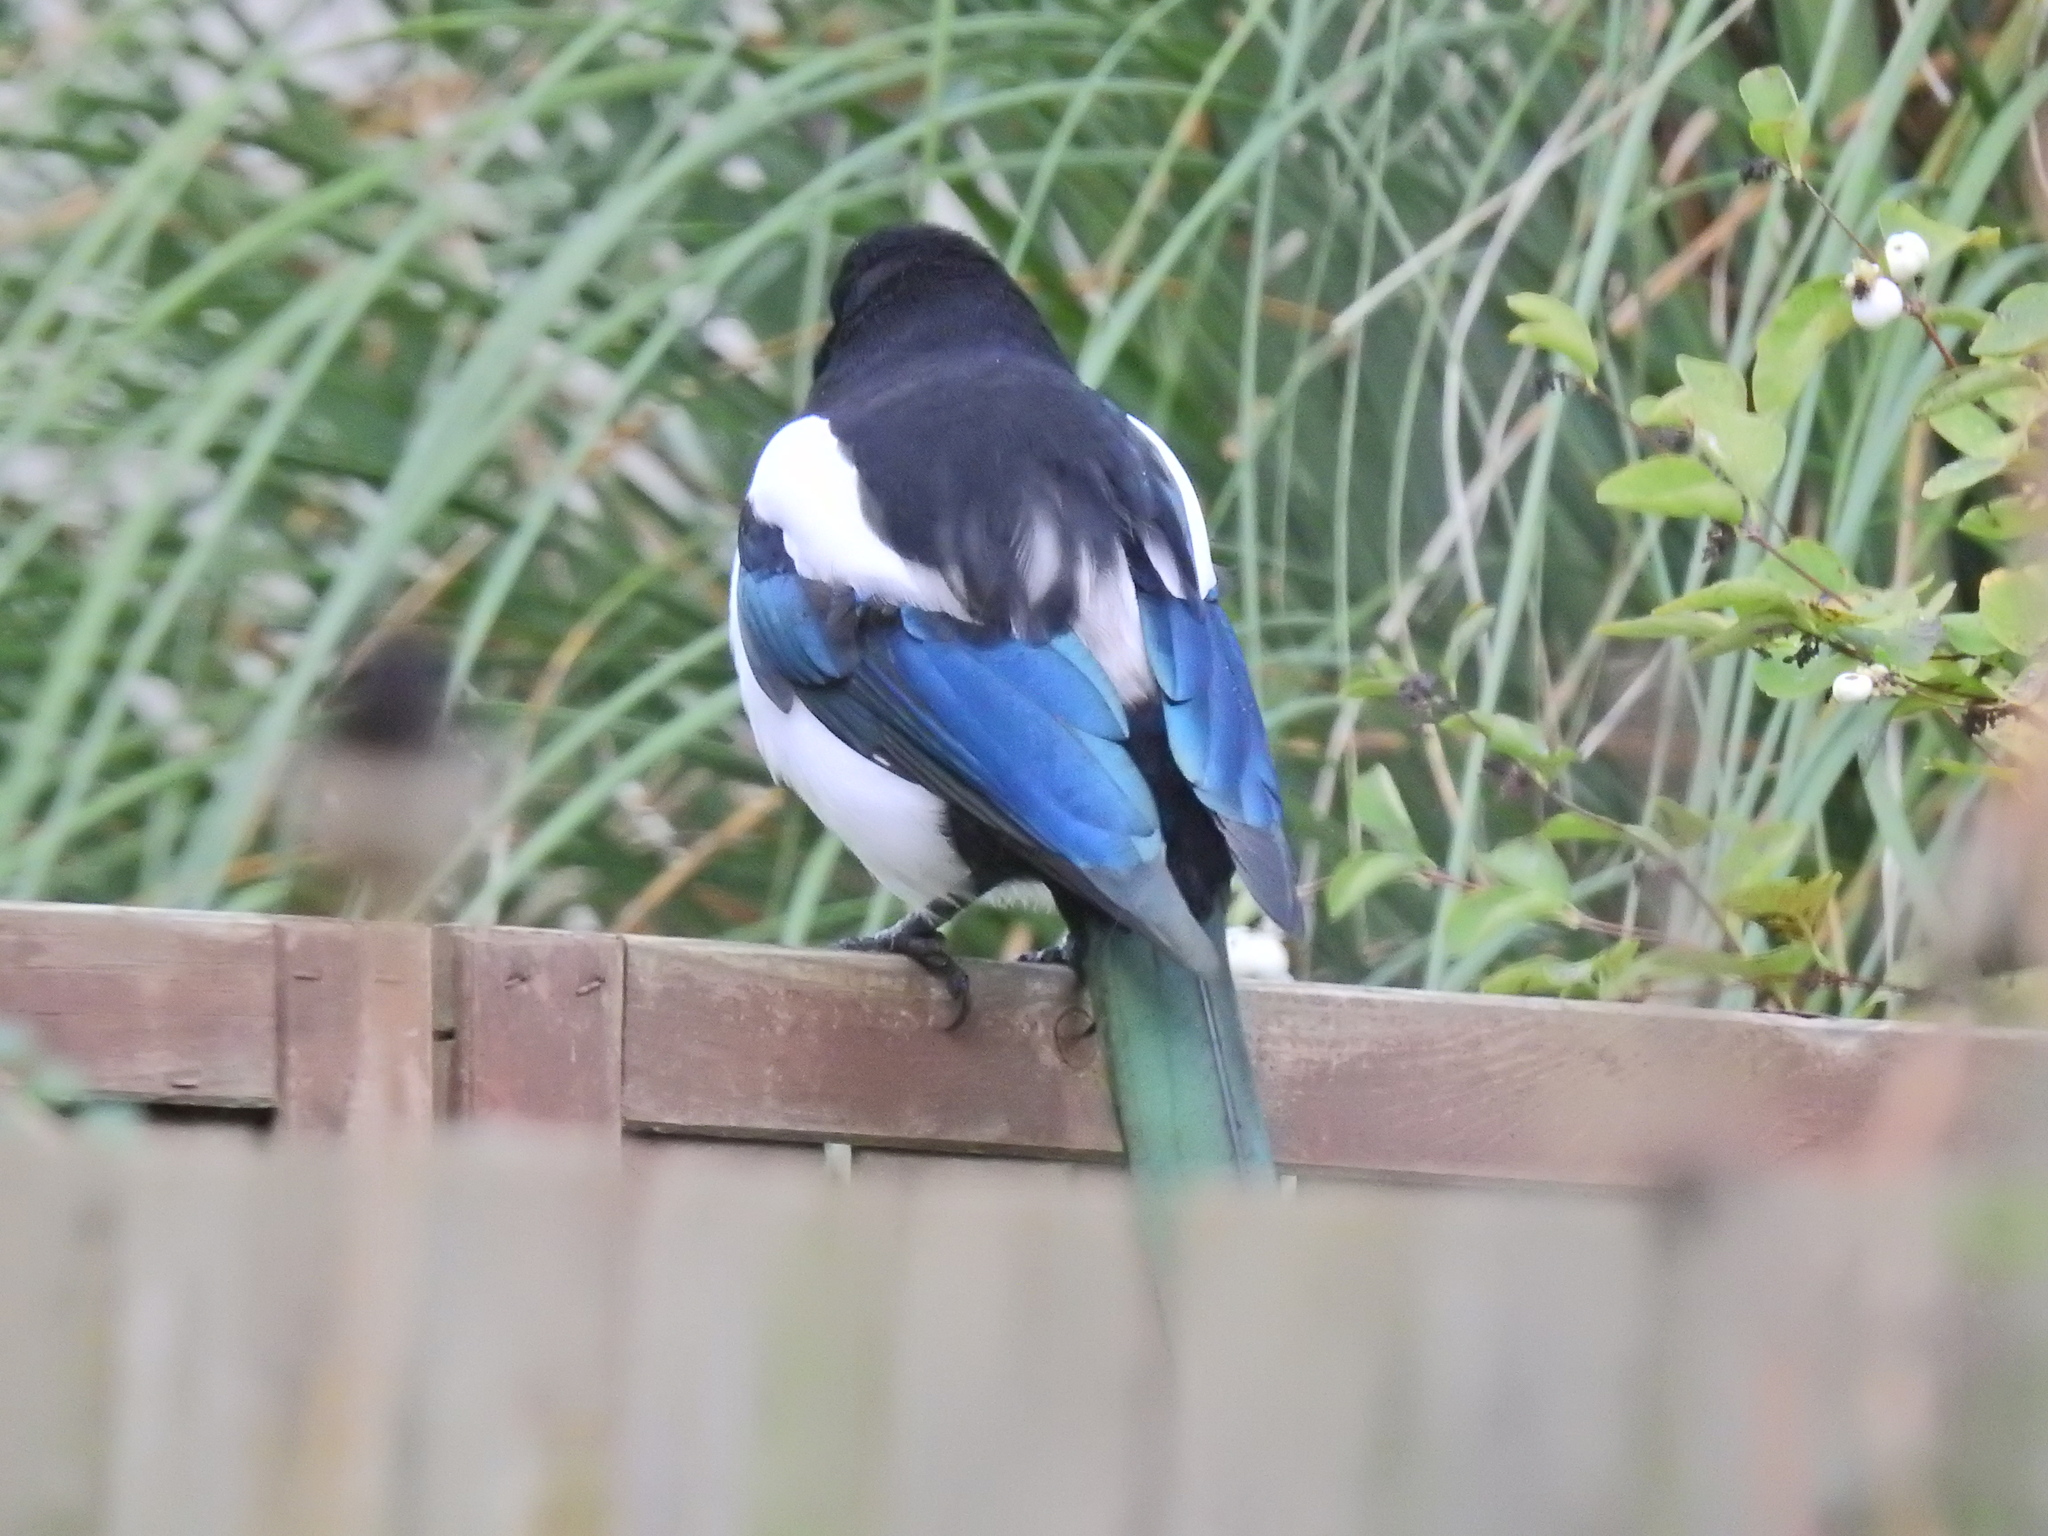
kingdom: Animalia
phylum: Chordata
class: Aves
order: Passeriformes
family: Corvidae
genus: Pica
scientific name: Pica pica
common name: Eurasian magpie
